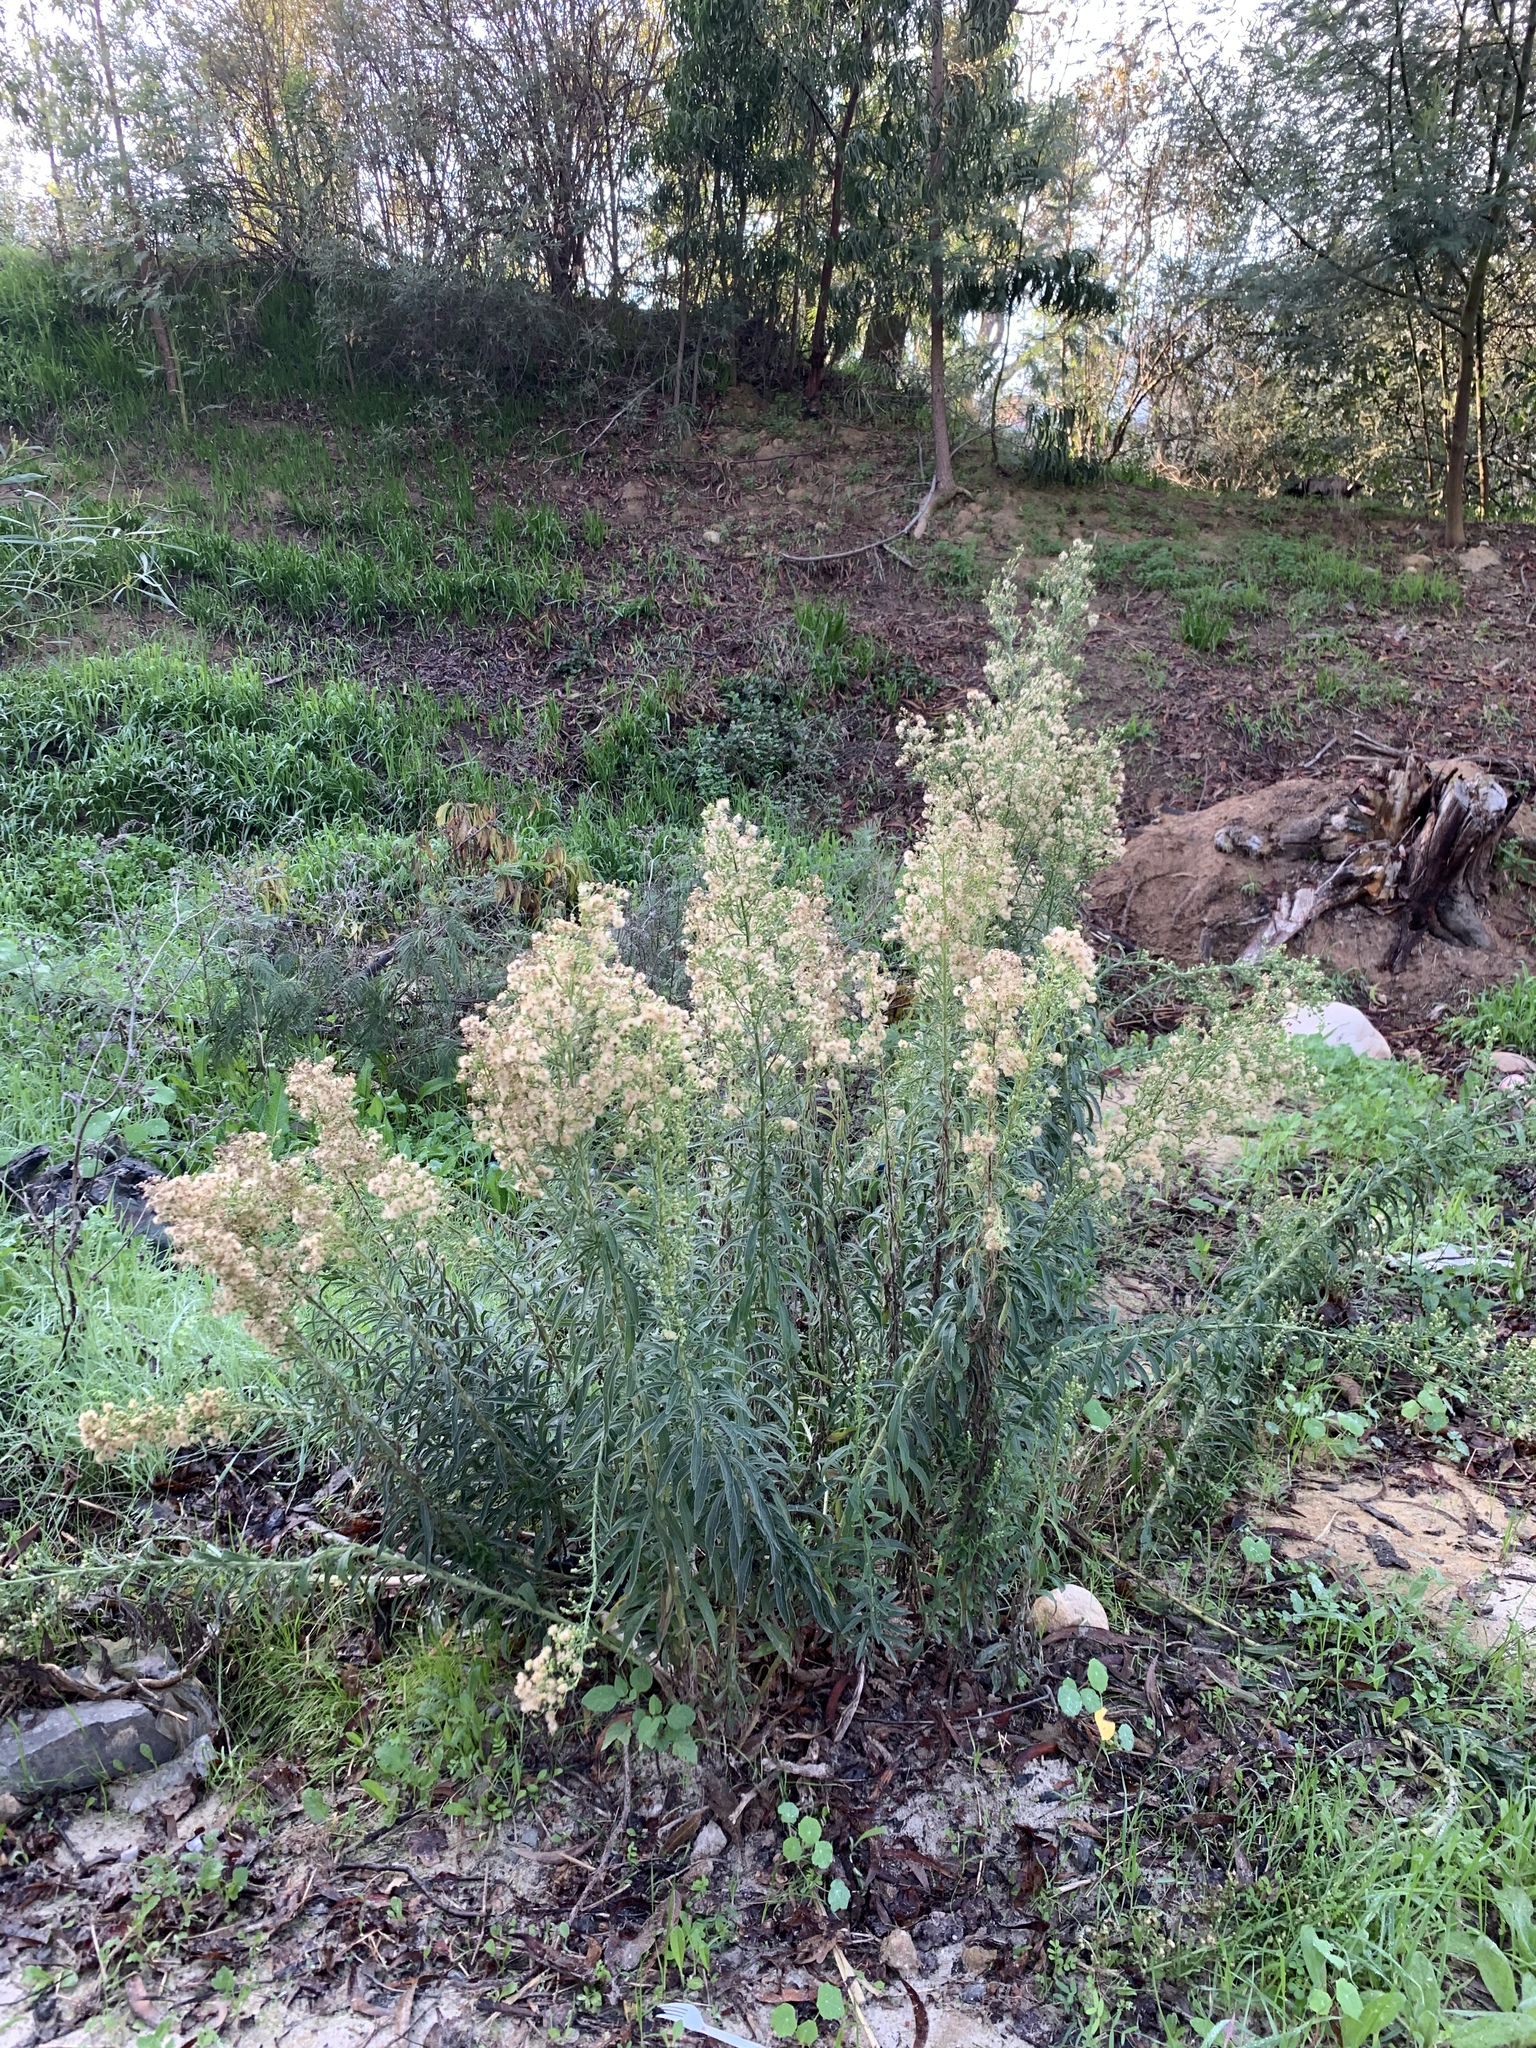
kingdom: Plantae
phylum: Tracheophyta
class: Magnoliopsida
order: Asterales
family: Asteraceae
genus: Erigeron
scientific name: Erigeron sumatrensis
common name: Daisy
